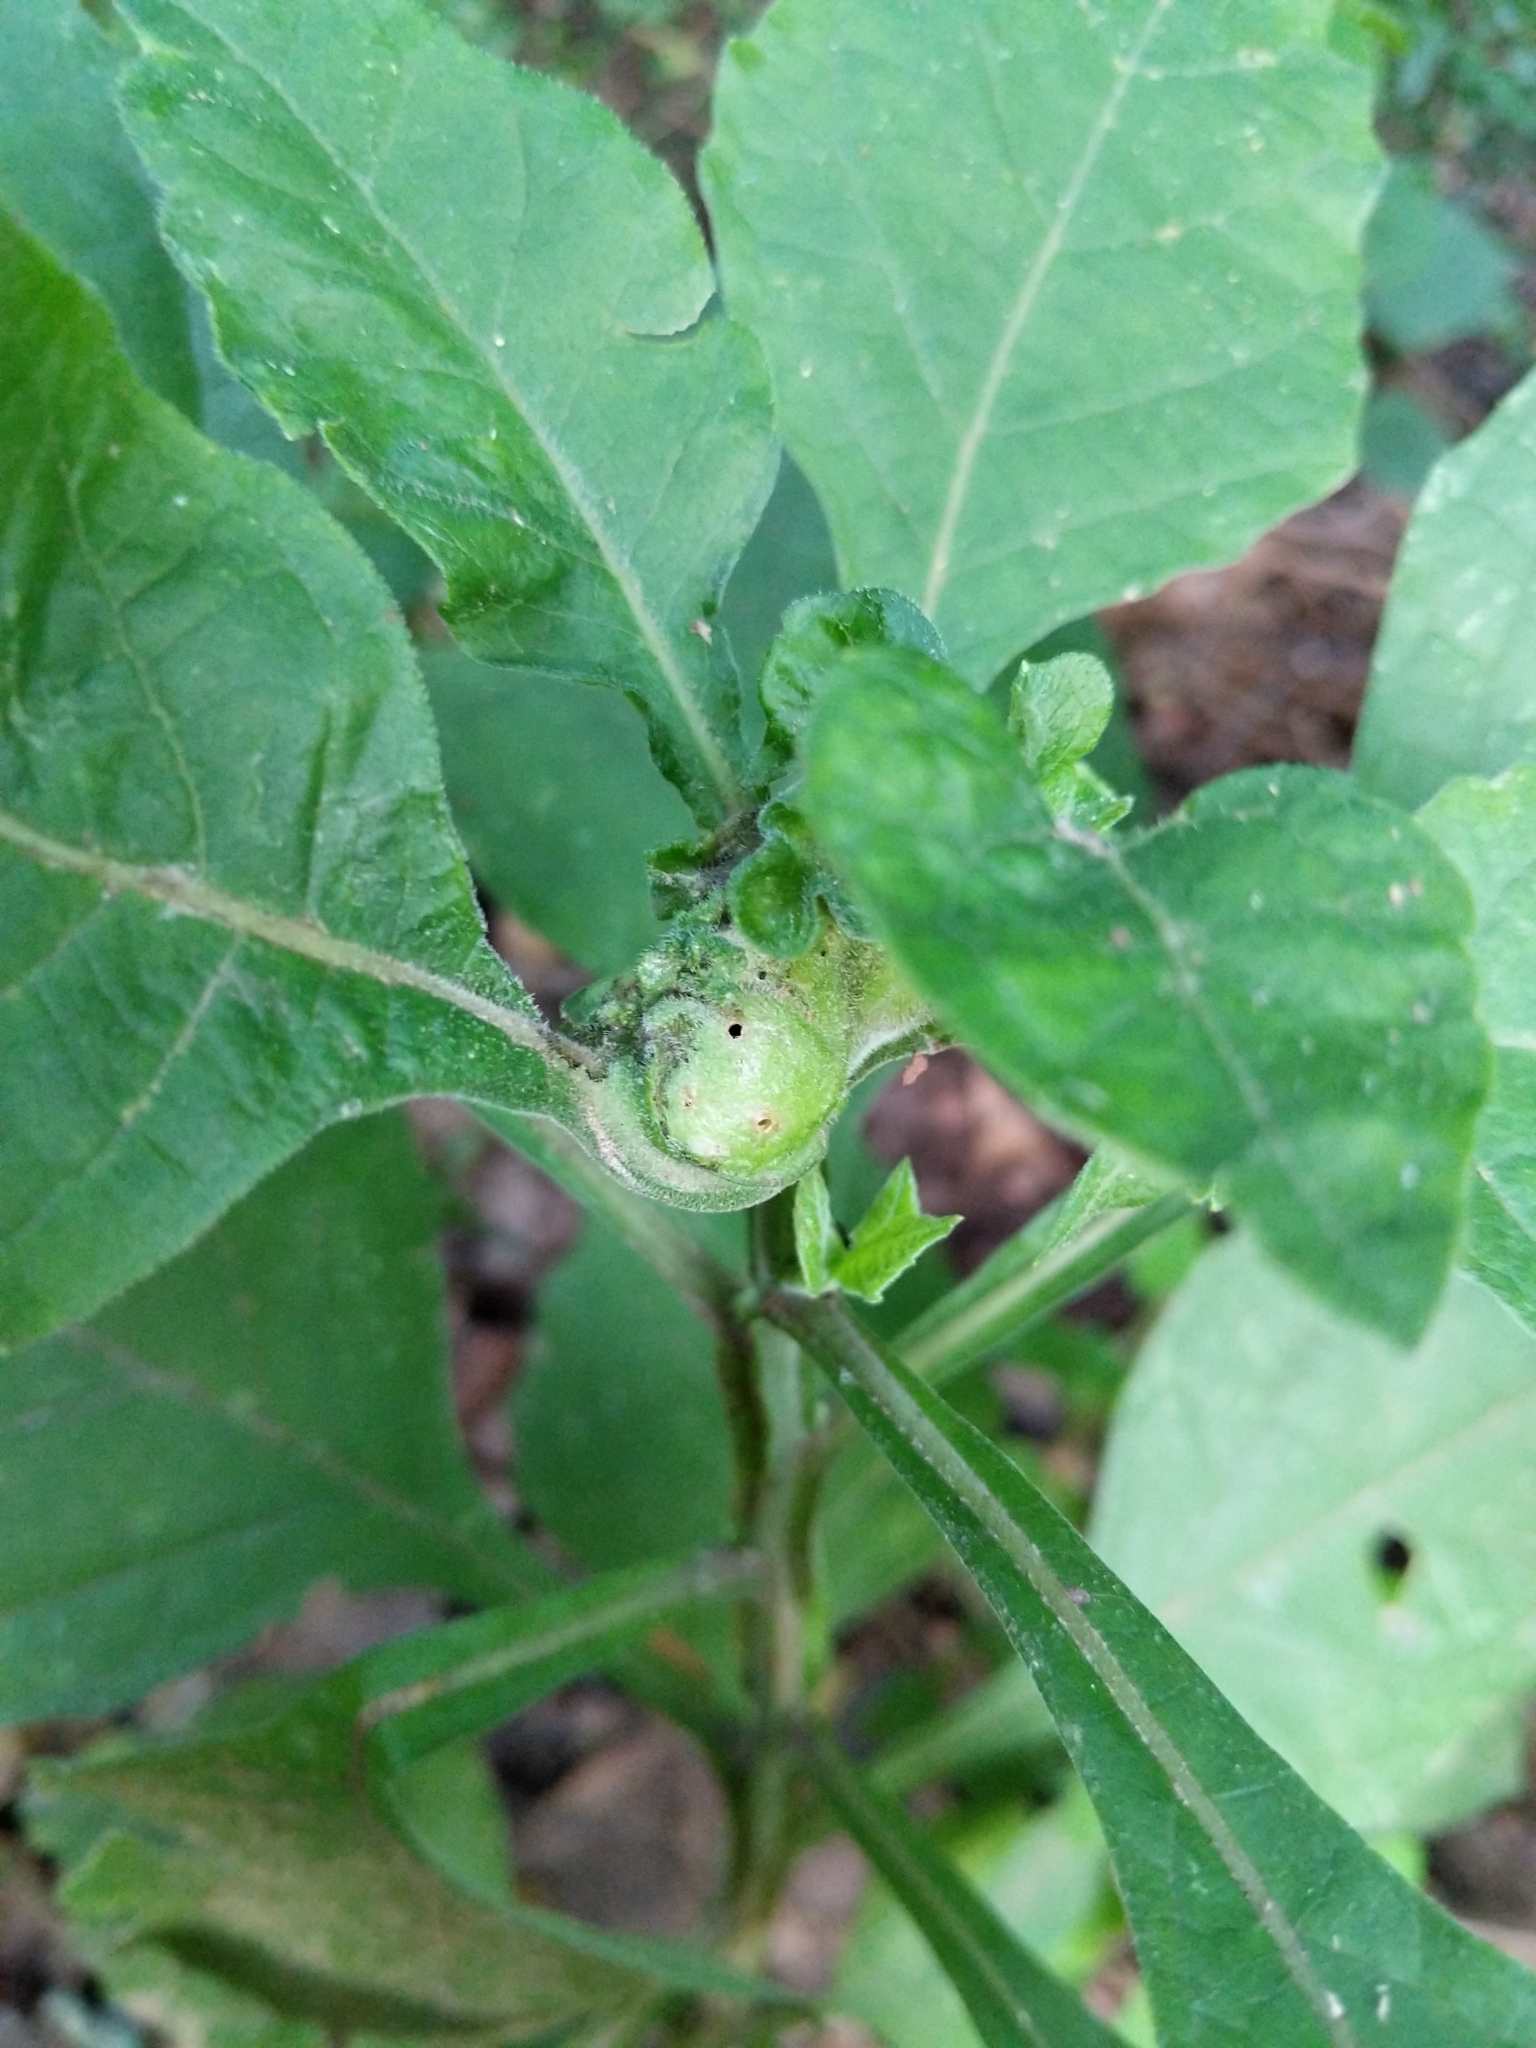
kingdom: Animalia
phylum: Arthropoda
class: Insecta
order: Diptera
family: Cecidomyiidae
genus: Neolasioptera
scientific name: Neolasioptera verbesinae
